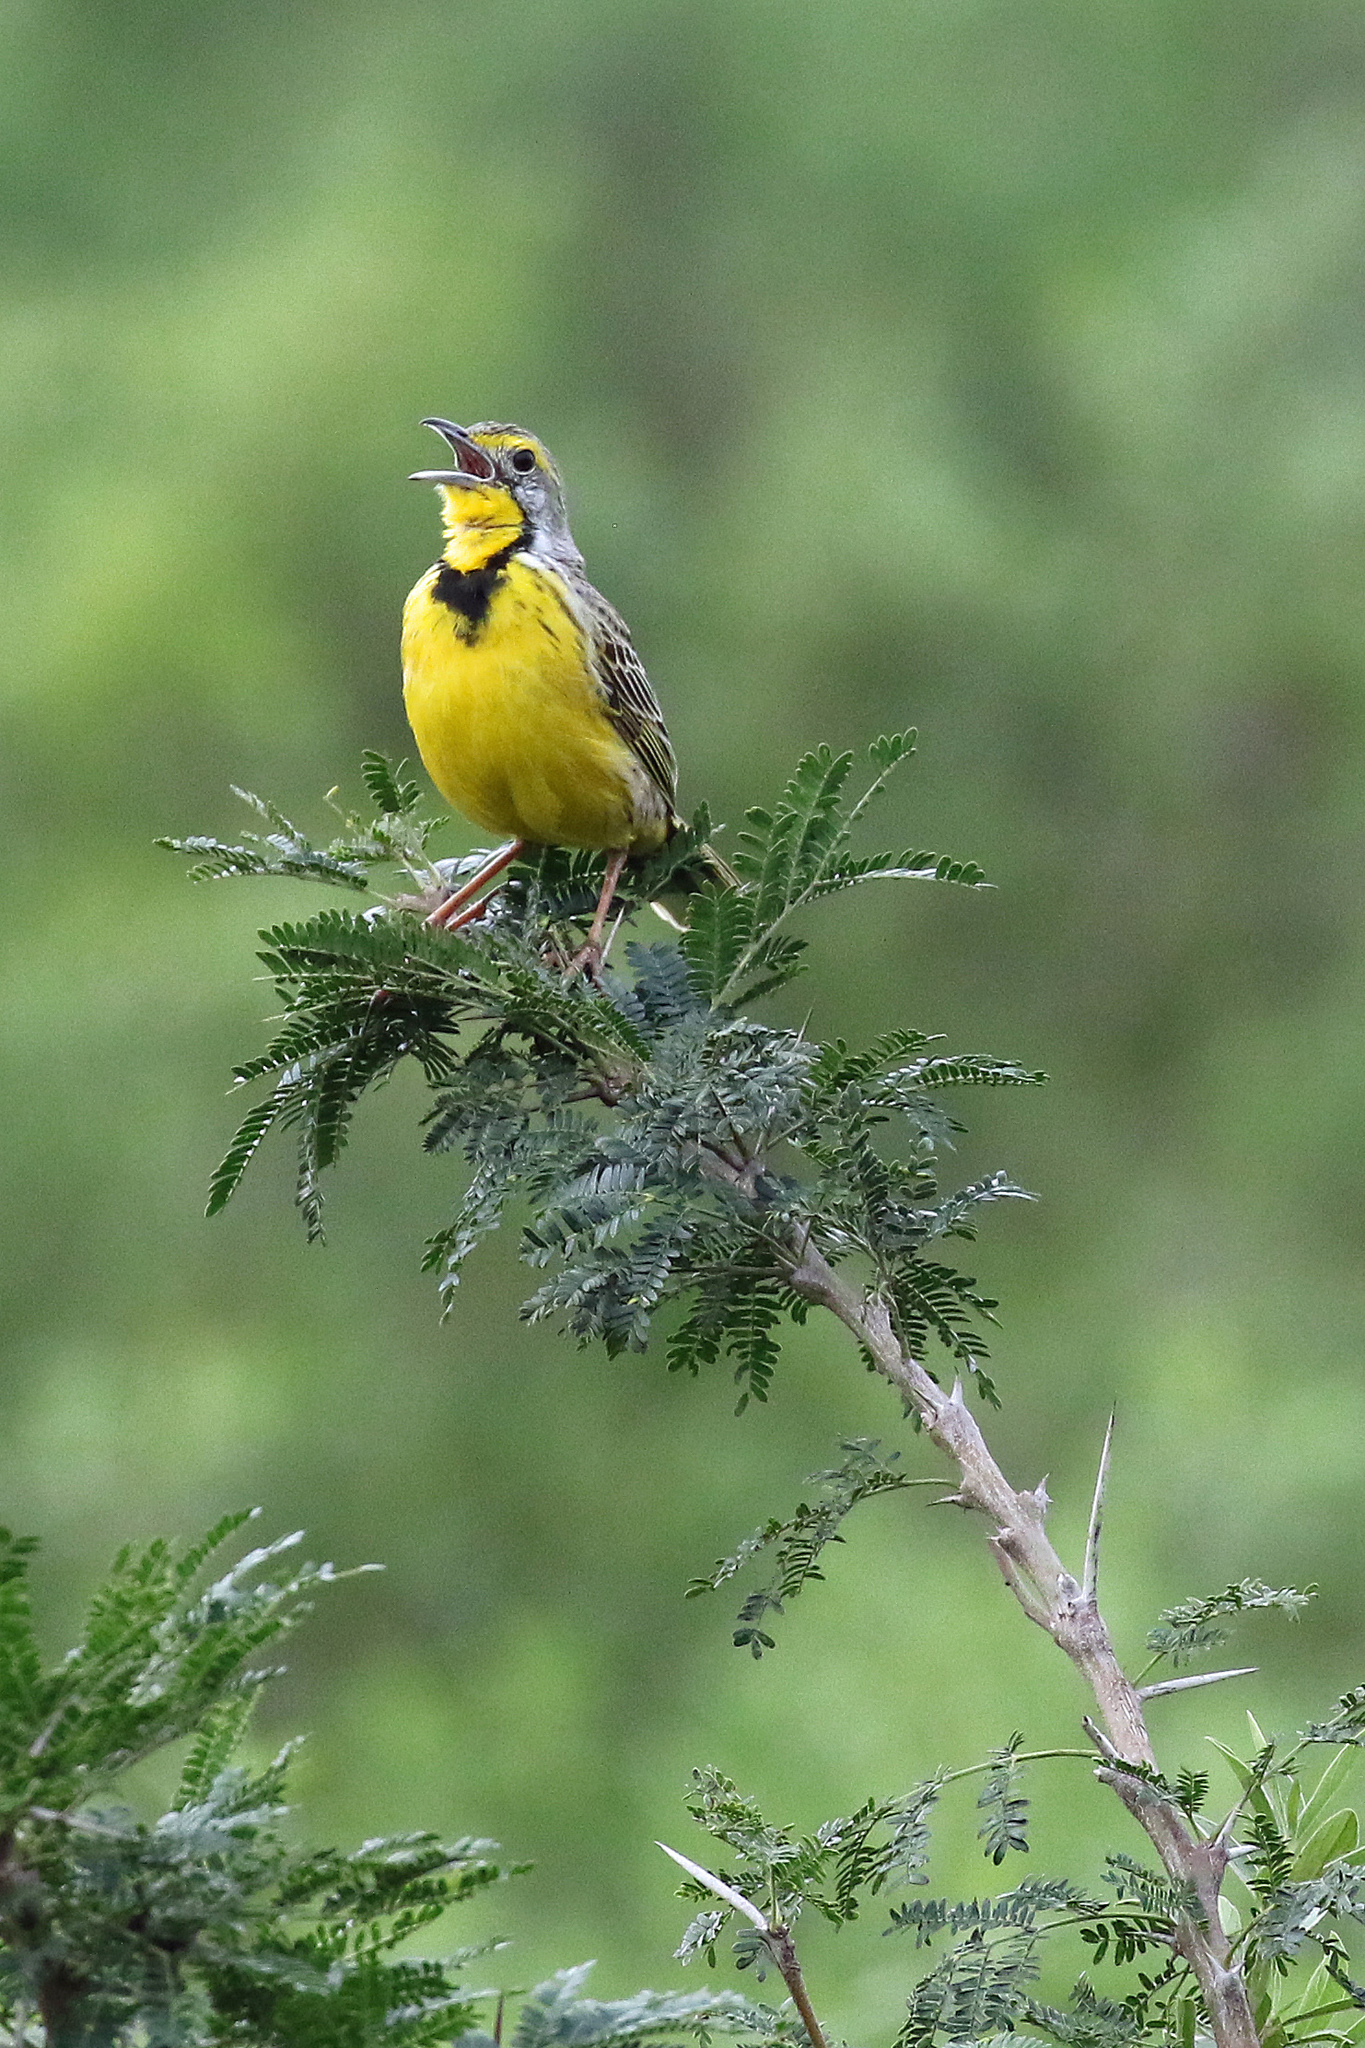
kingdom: Animalia
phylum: Chordata
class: Aves
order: Passeriformes
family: Motacillidae
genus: Macronyx
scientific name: Macronyx croceus
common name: Yellow-throated longclaw
